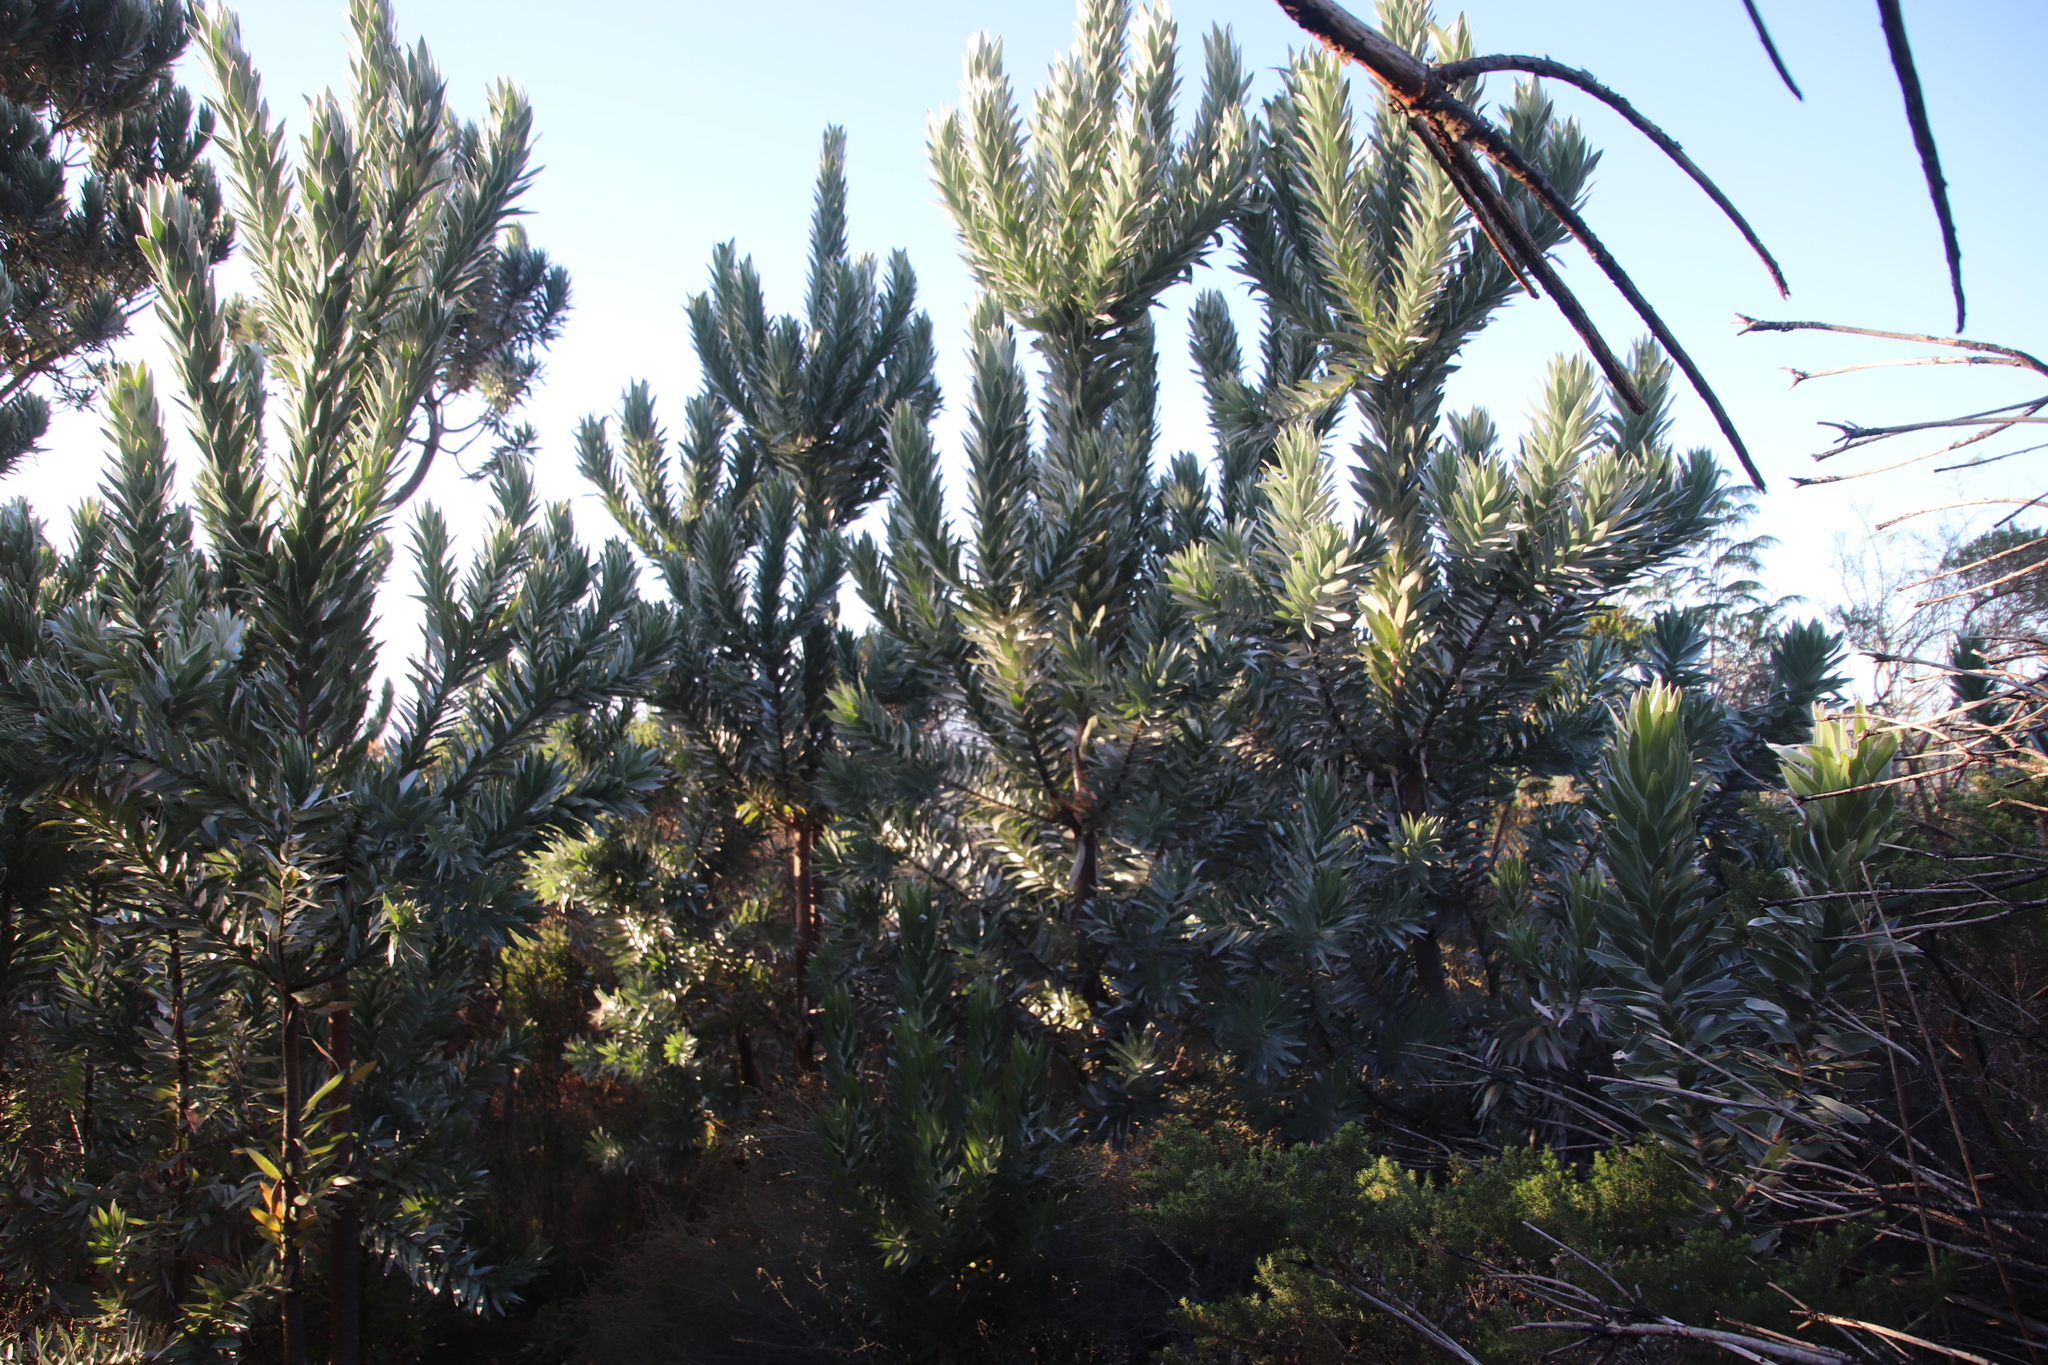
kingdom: Plantae
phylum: Tracheophyta
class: Magnoliopsida
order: Proteales
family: Proteaceae
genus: Leucadendron
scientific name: Leucadendron argenteum
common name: Cape silver tree
